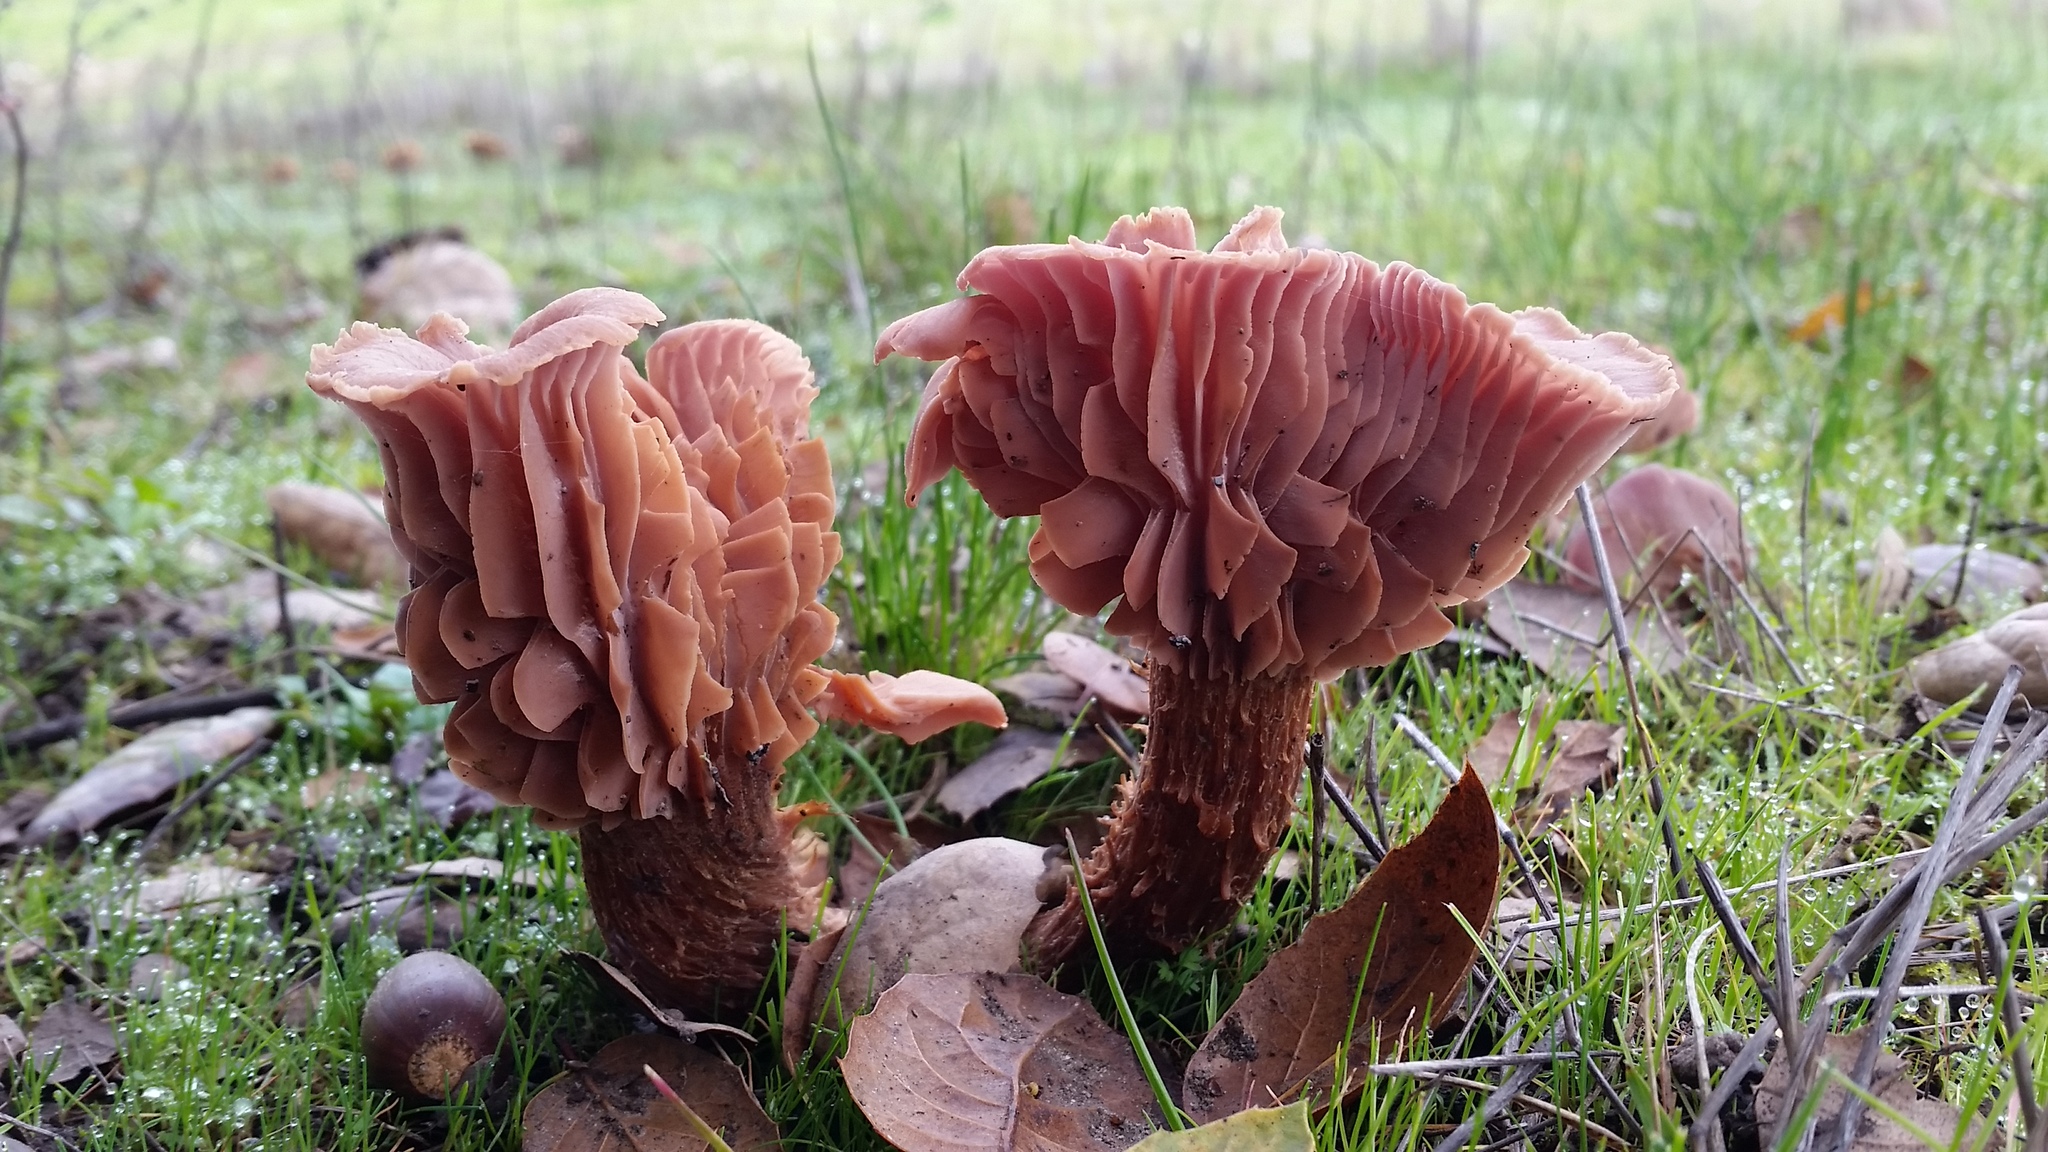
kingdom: Fungi
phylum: Basidiomycota
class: Agaricomycetes
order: Agaricales
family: Hydnangiaceae
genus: Laccaria
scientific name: Laccaria amethysteo-occidentalis
